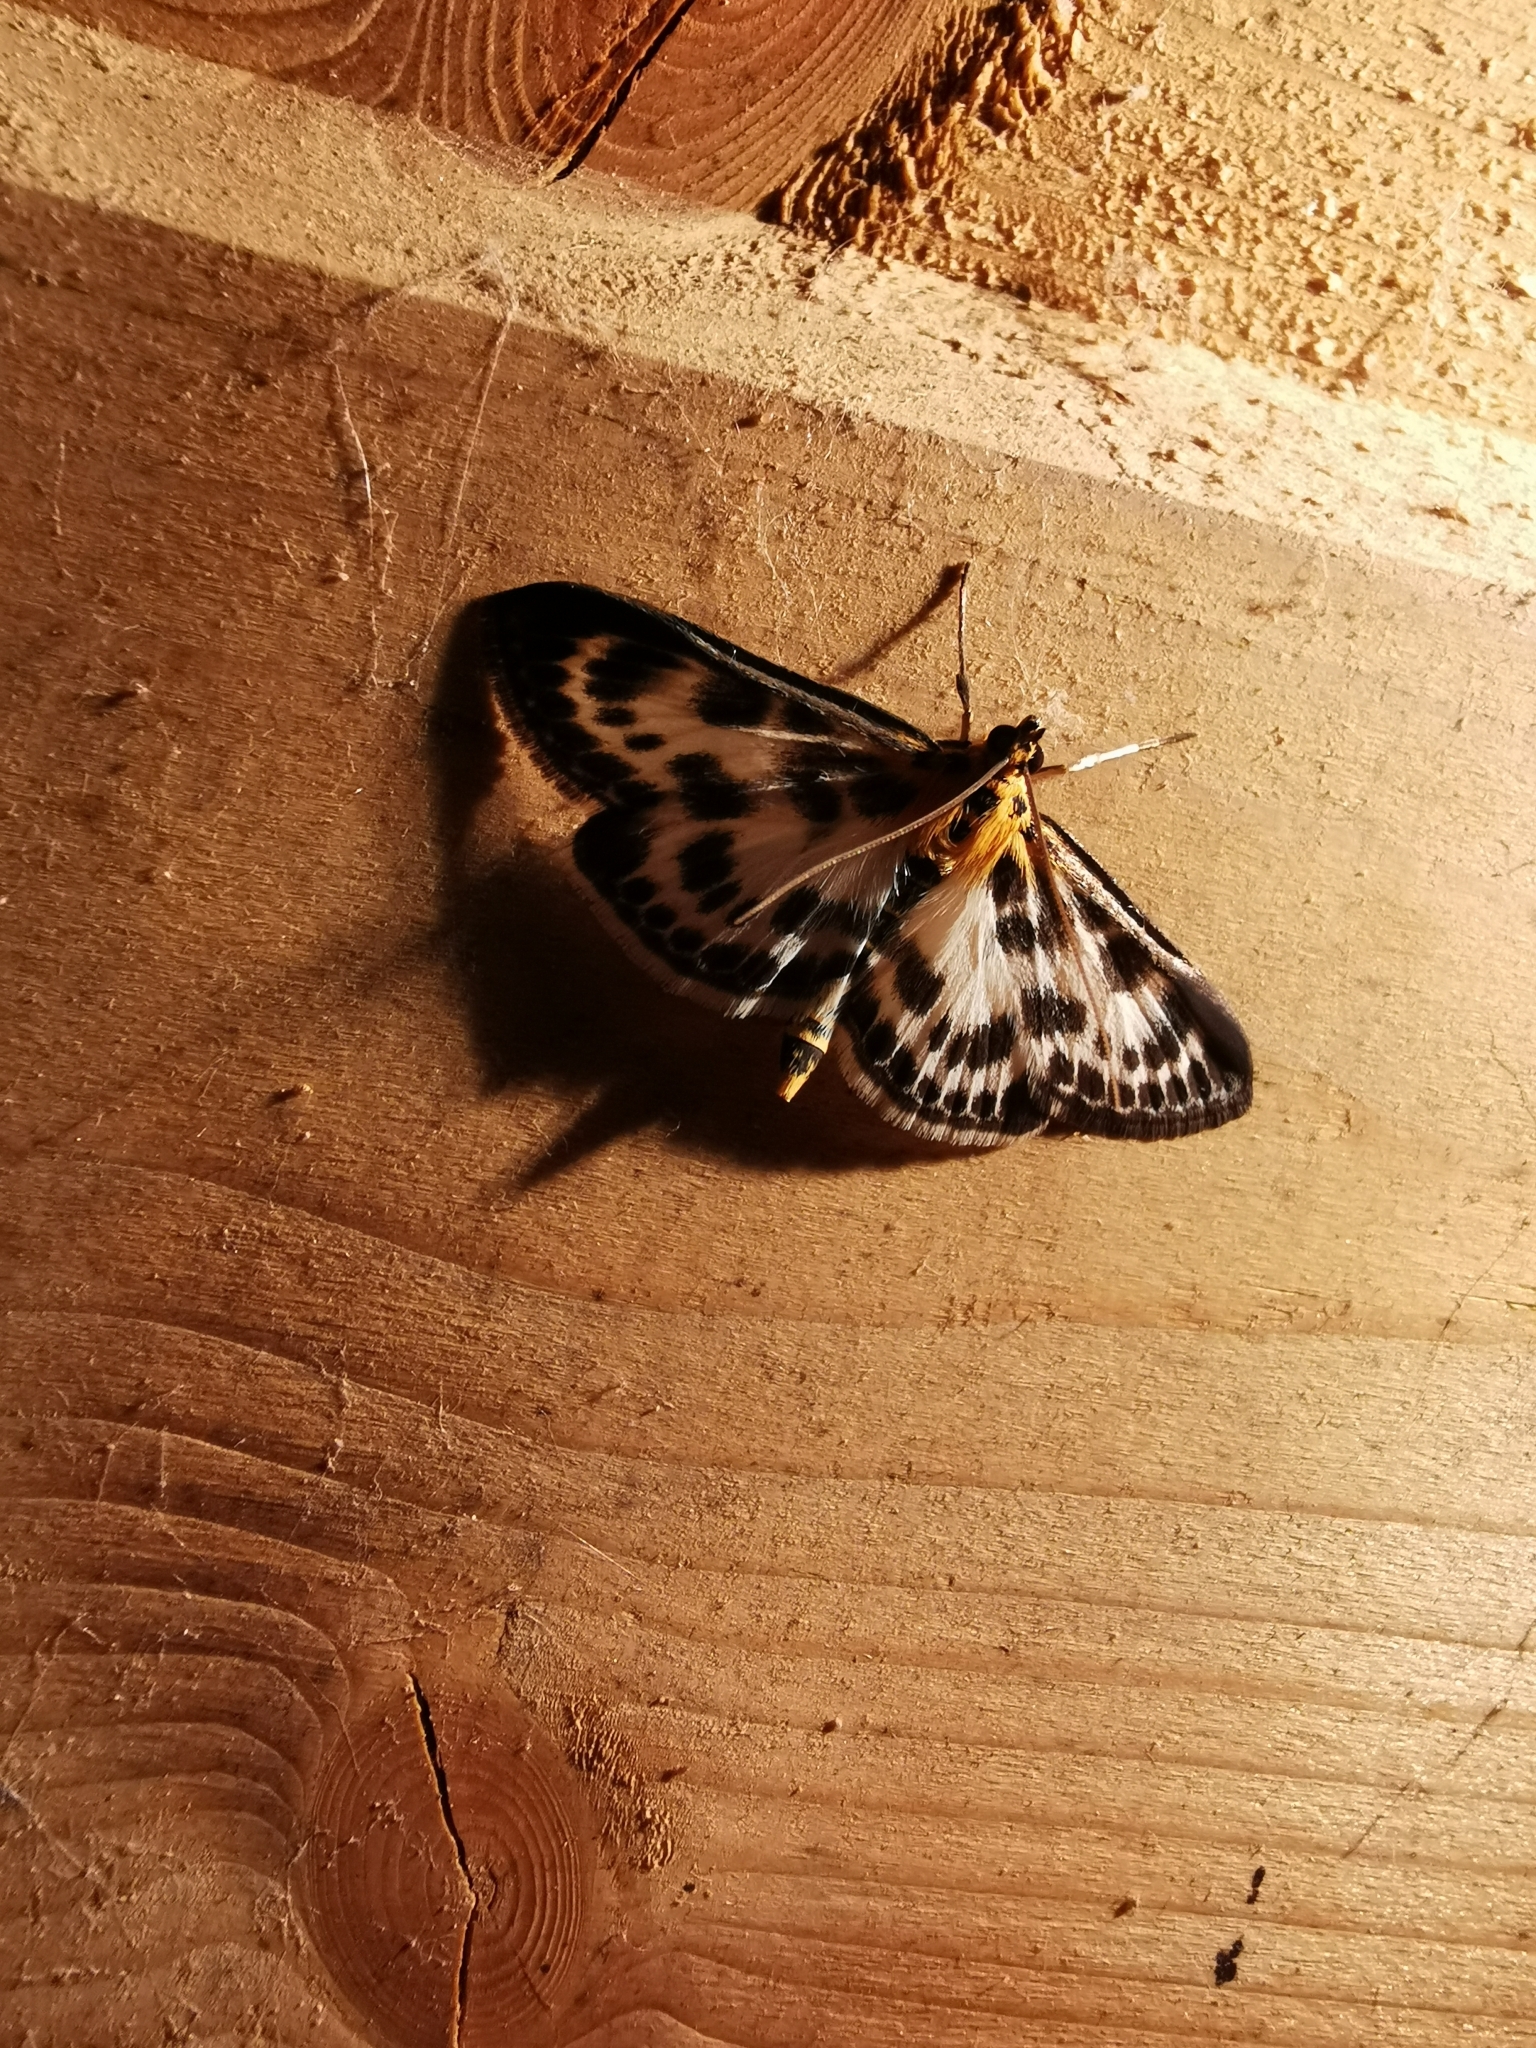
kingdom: Animalia
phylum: Arthropoda
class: Insecta
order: Lepidoptera
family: Crambidae
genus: Anania
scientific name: Anania hortulata
